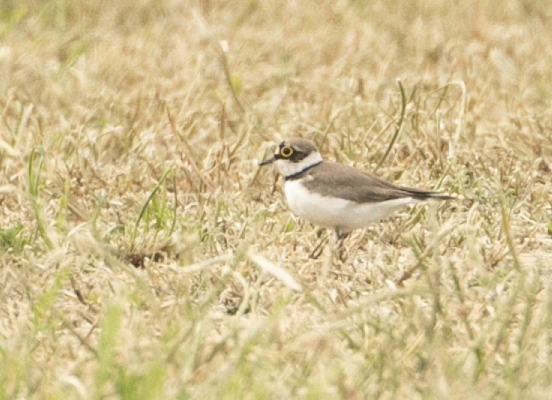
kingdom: Animalia
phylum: Chordata
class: Aves
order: Charadriiformes
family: Charadriidae
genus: Charadrius
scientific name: Charadrius dubius
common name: Little ringed plover
